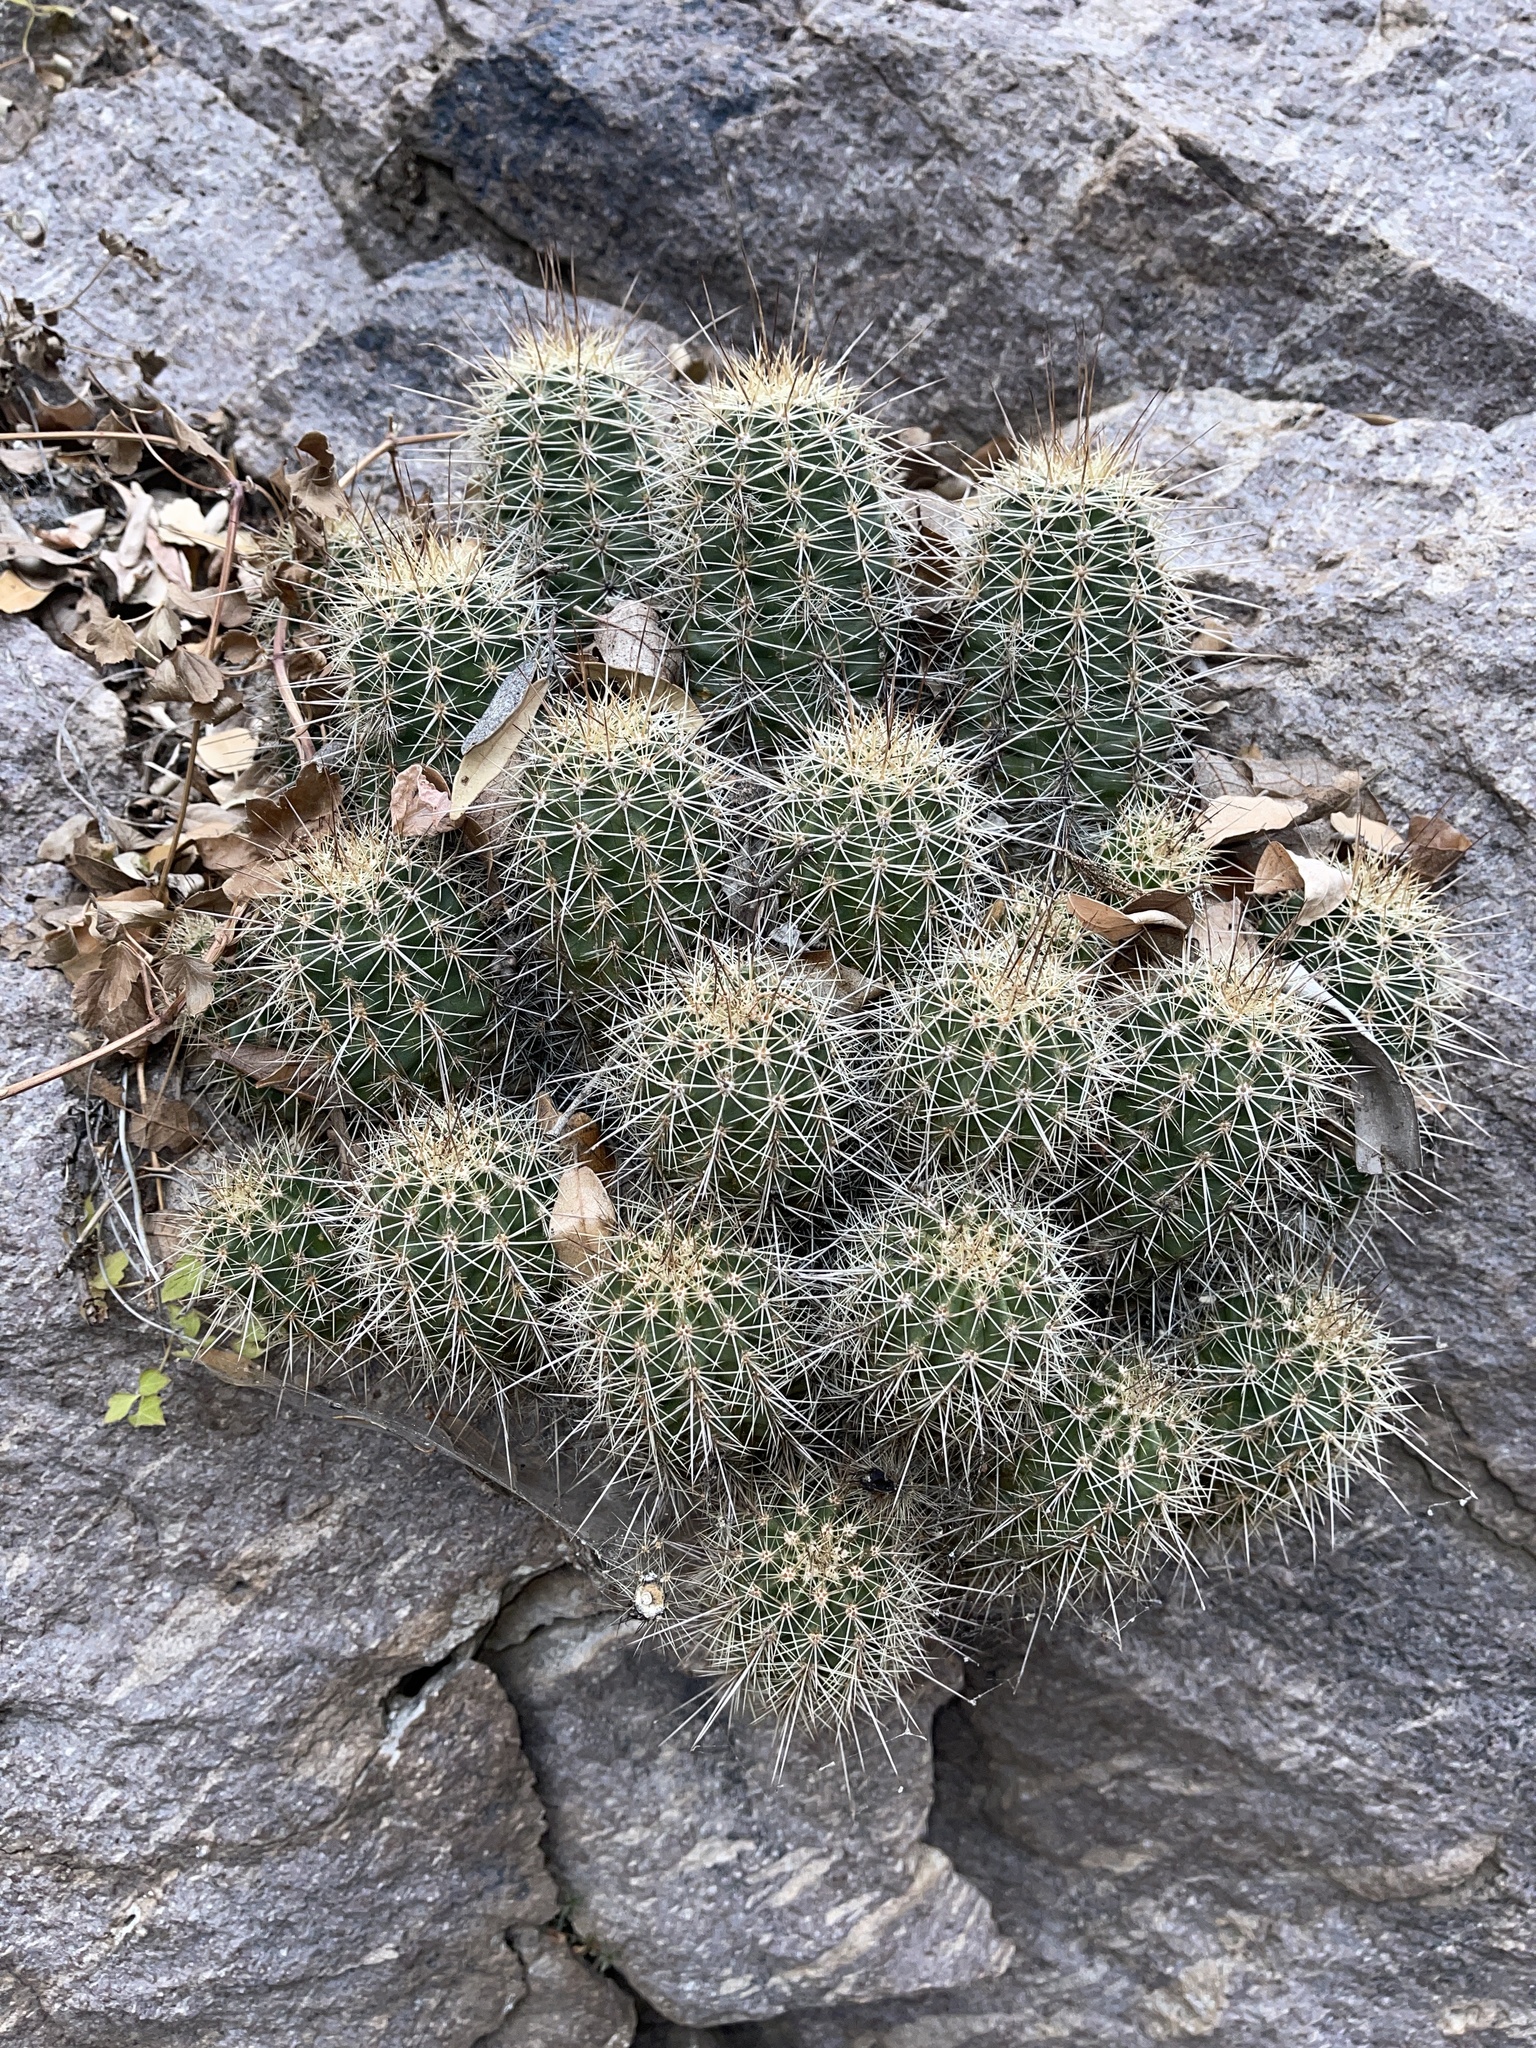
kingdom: Plantae
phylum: Tracheophyta
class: Magnoliopsida
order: Caryophyllales
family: Cactaceae
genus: Echinocereus
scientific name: Echinocereus coccineus
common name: Scarlet hedgehog cactus
